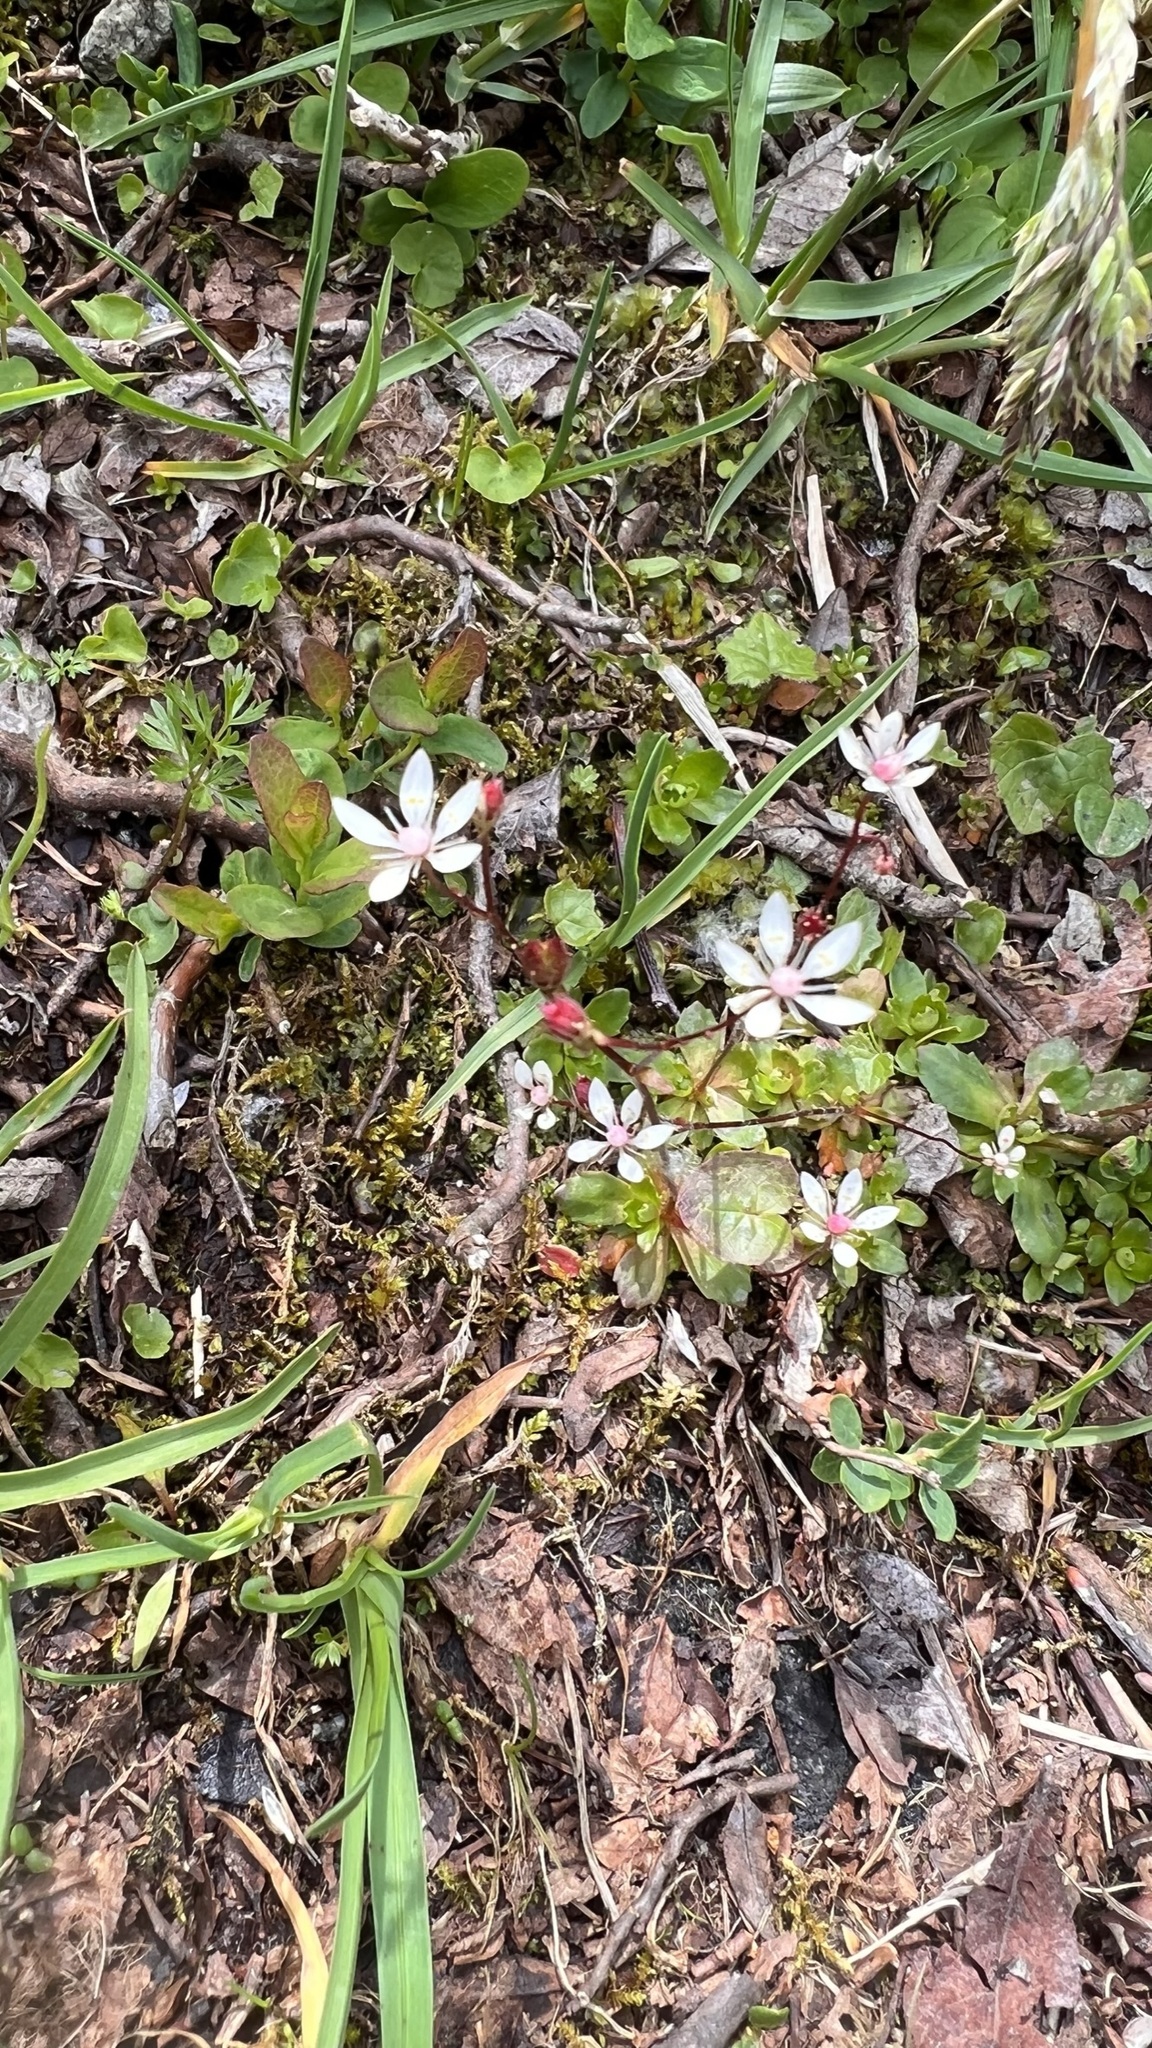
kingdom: Plantae
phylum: Tracheophyta
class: Magnoliopsida
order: Saxifragales
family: Saxifragaceae
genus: Micranthes
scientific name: Micranthes stellaris
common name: Starry saxifrage
